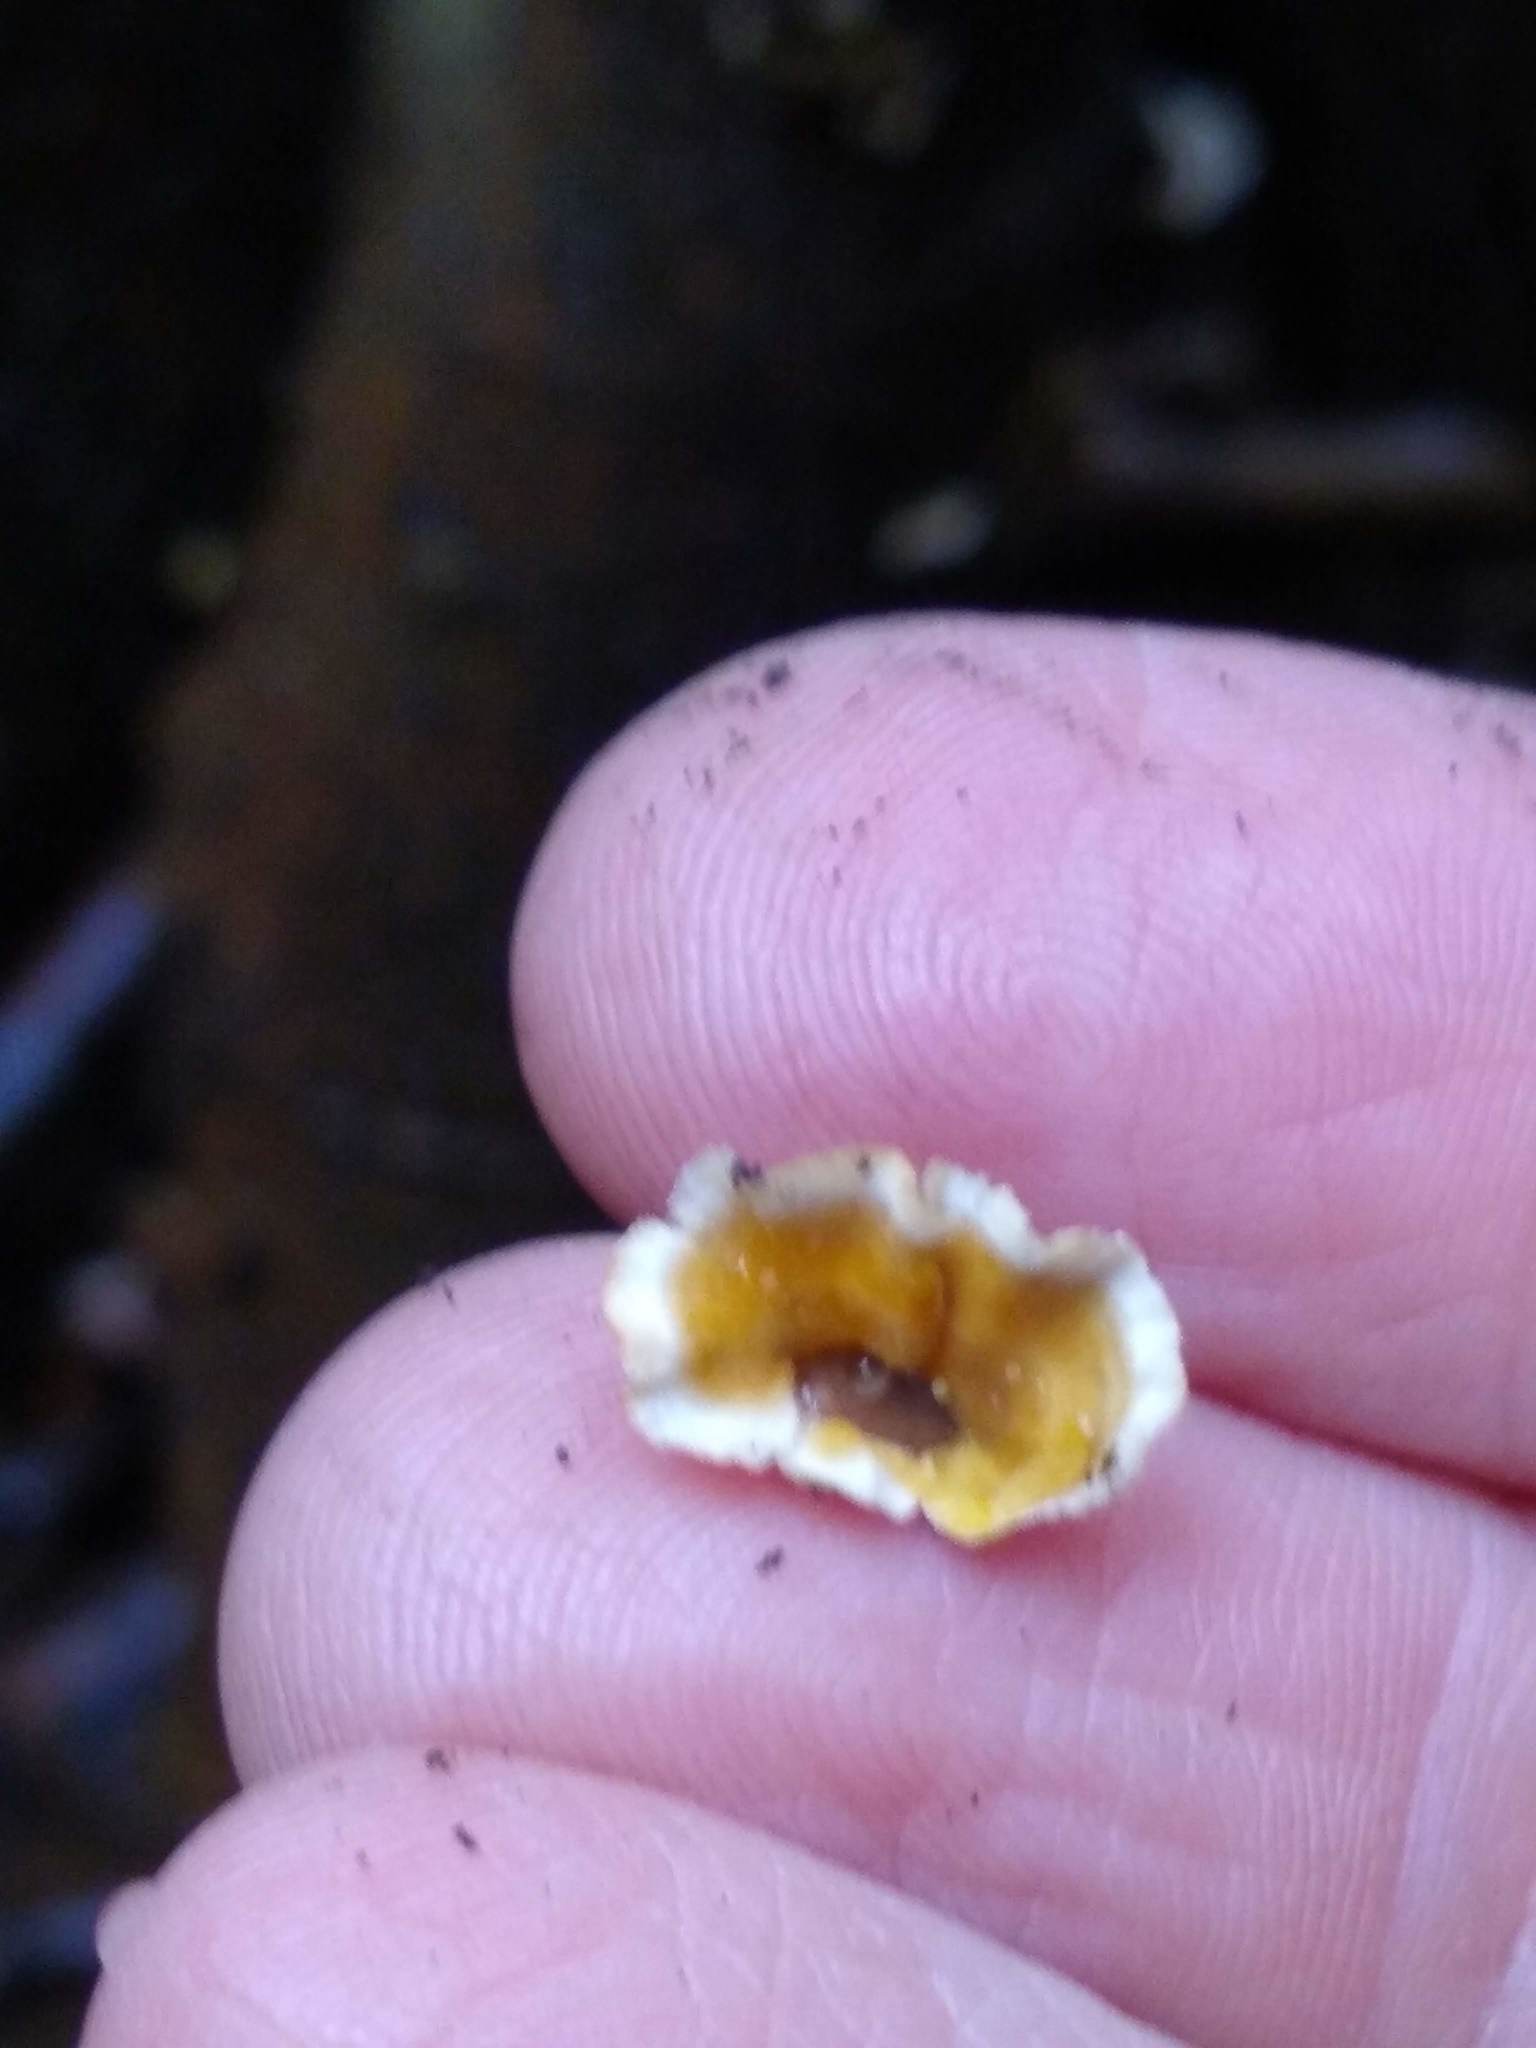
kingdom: Fungi
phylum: Basidiomycota
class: Agaricomycetes
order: Russulales
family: Stereaceae
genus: Stereum
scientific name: Stereum complicatum
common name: Crowded parchment
